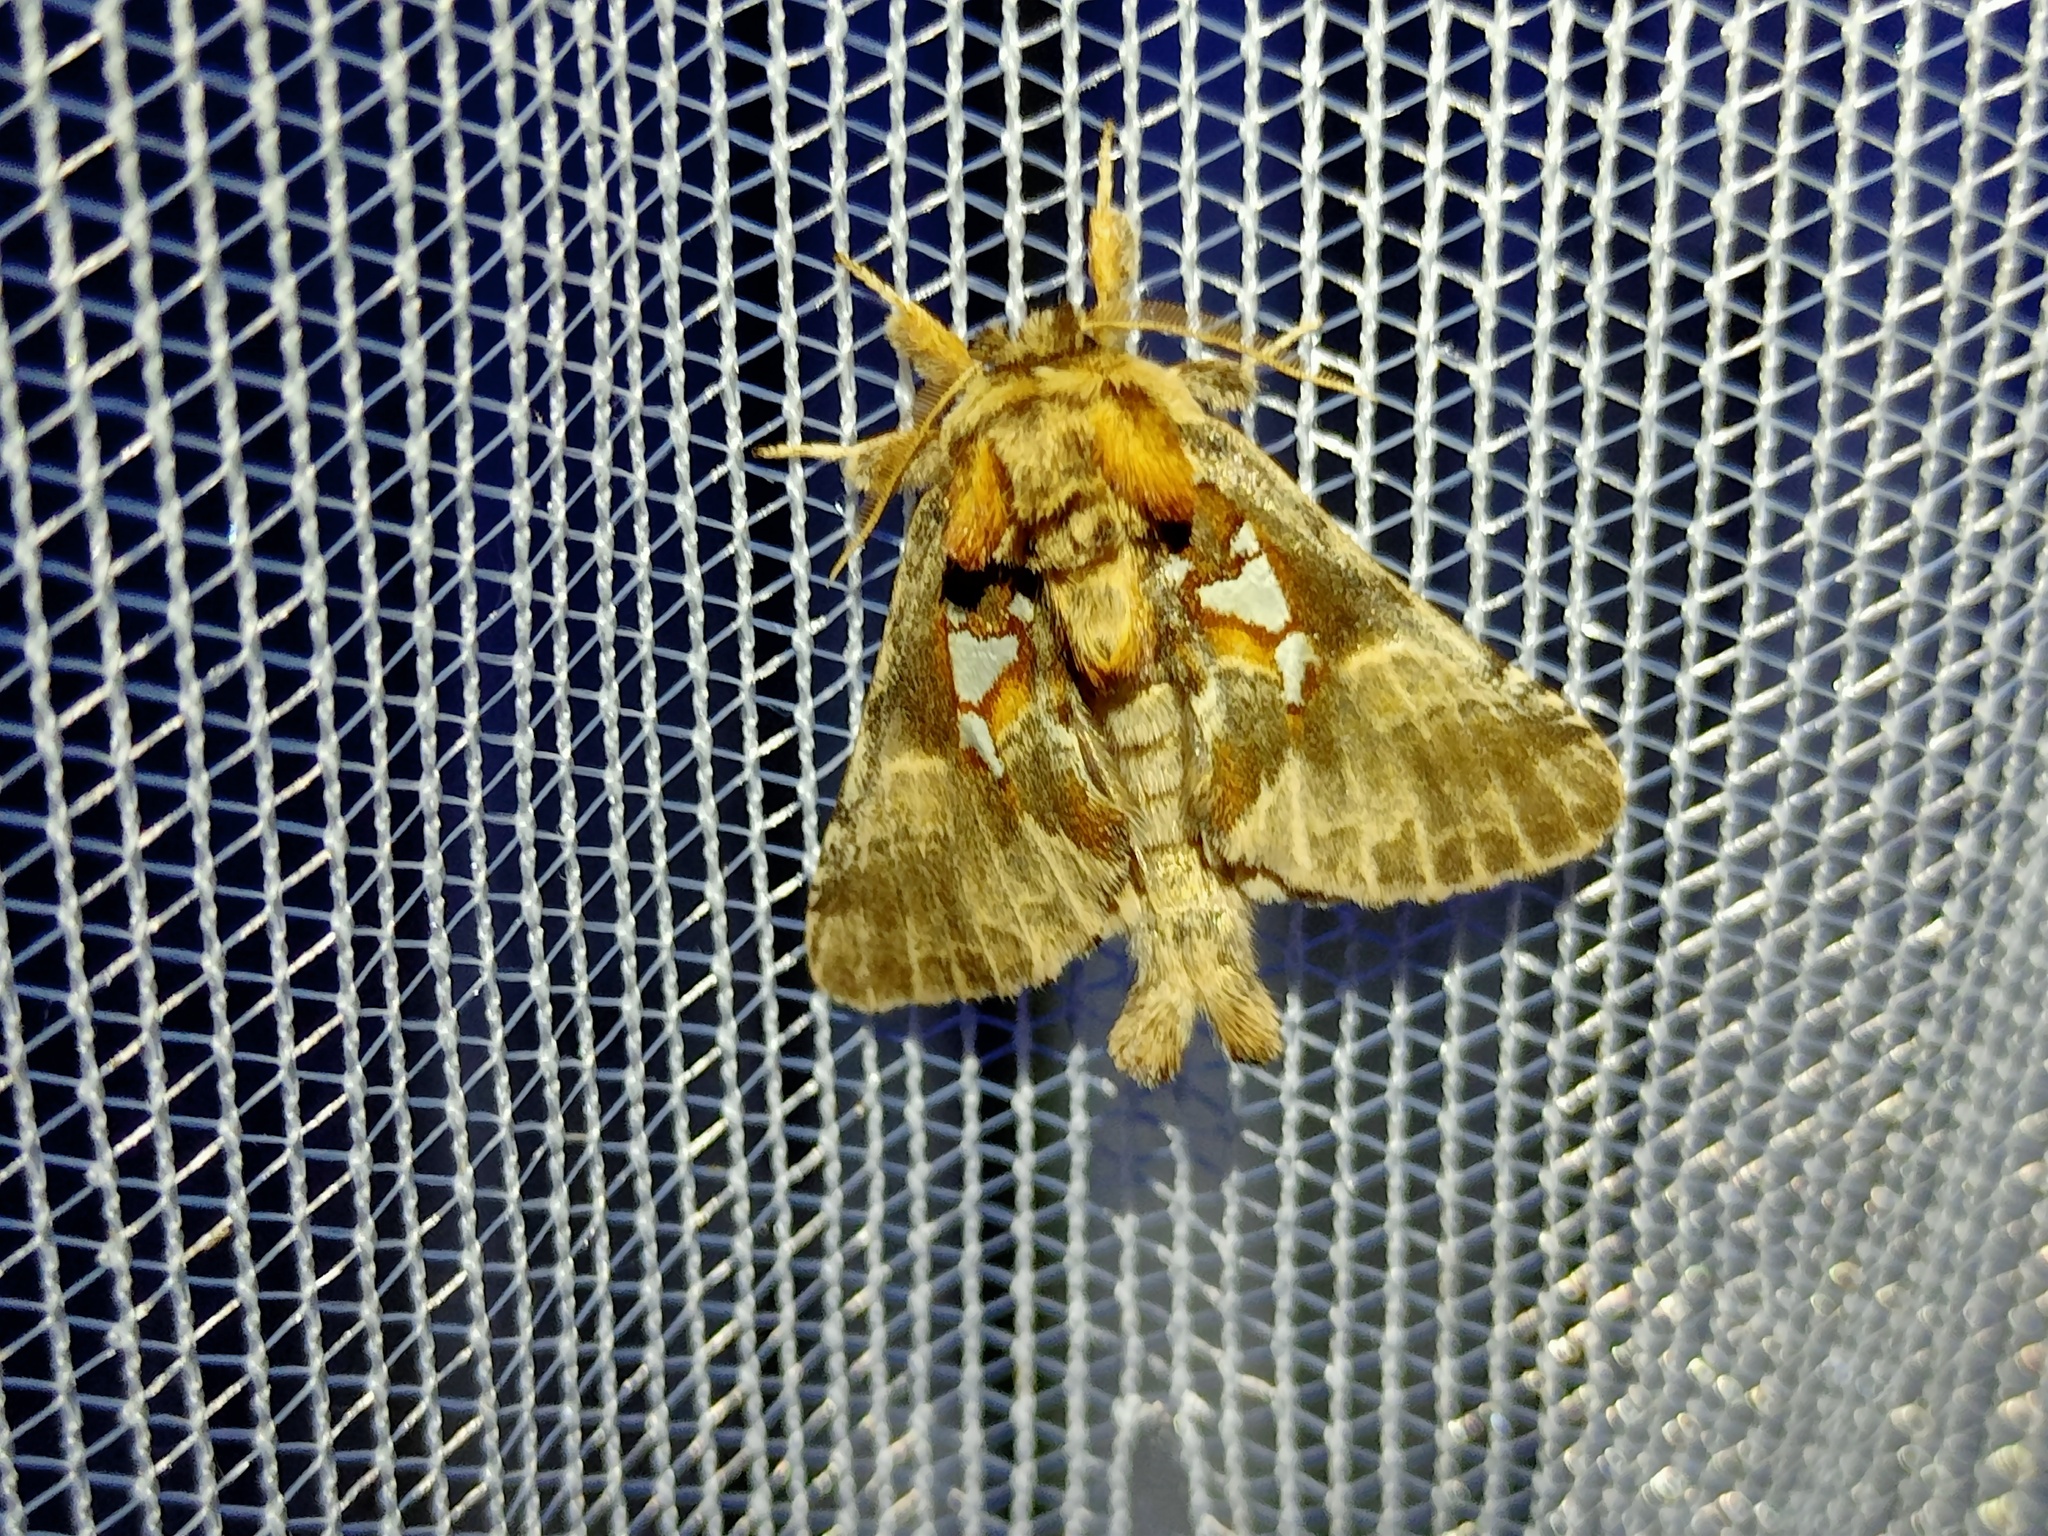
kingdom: Animalia
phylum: Arthropoda
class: Insecta
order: Lepidoptera
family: Notodontidae
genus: Spatalia
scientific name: Spatalia argentina
